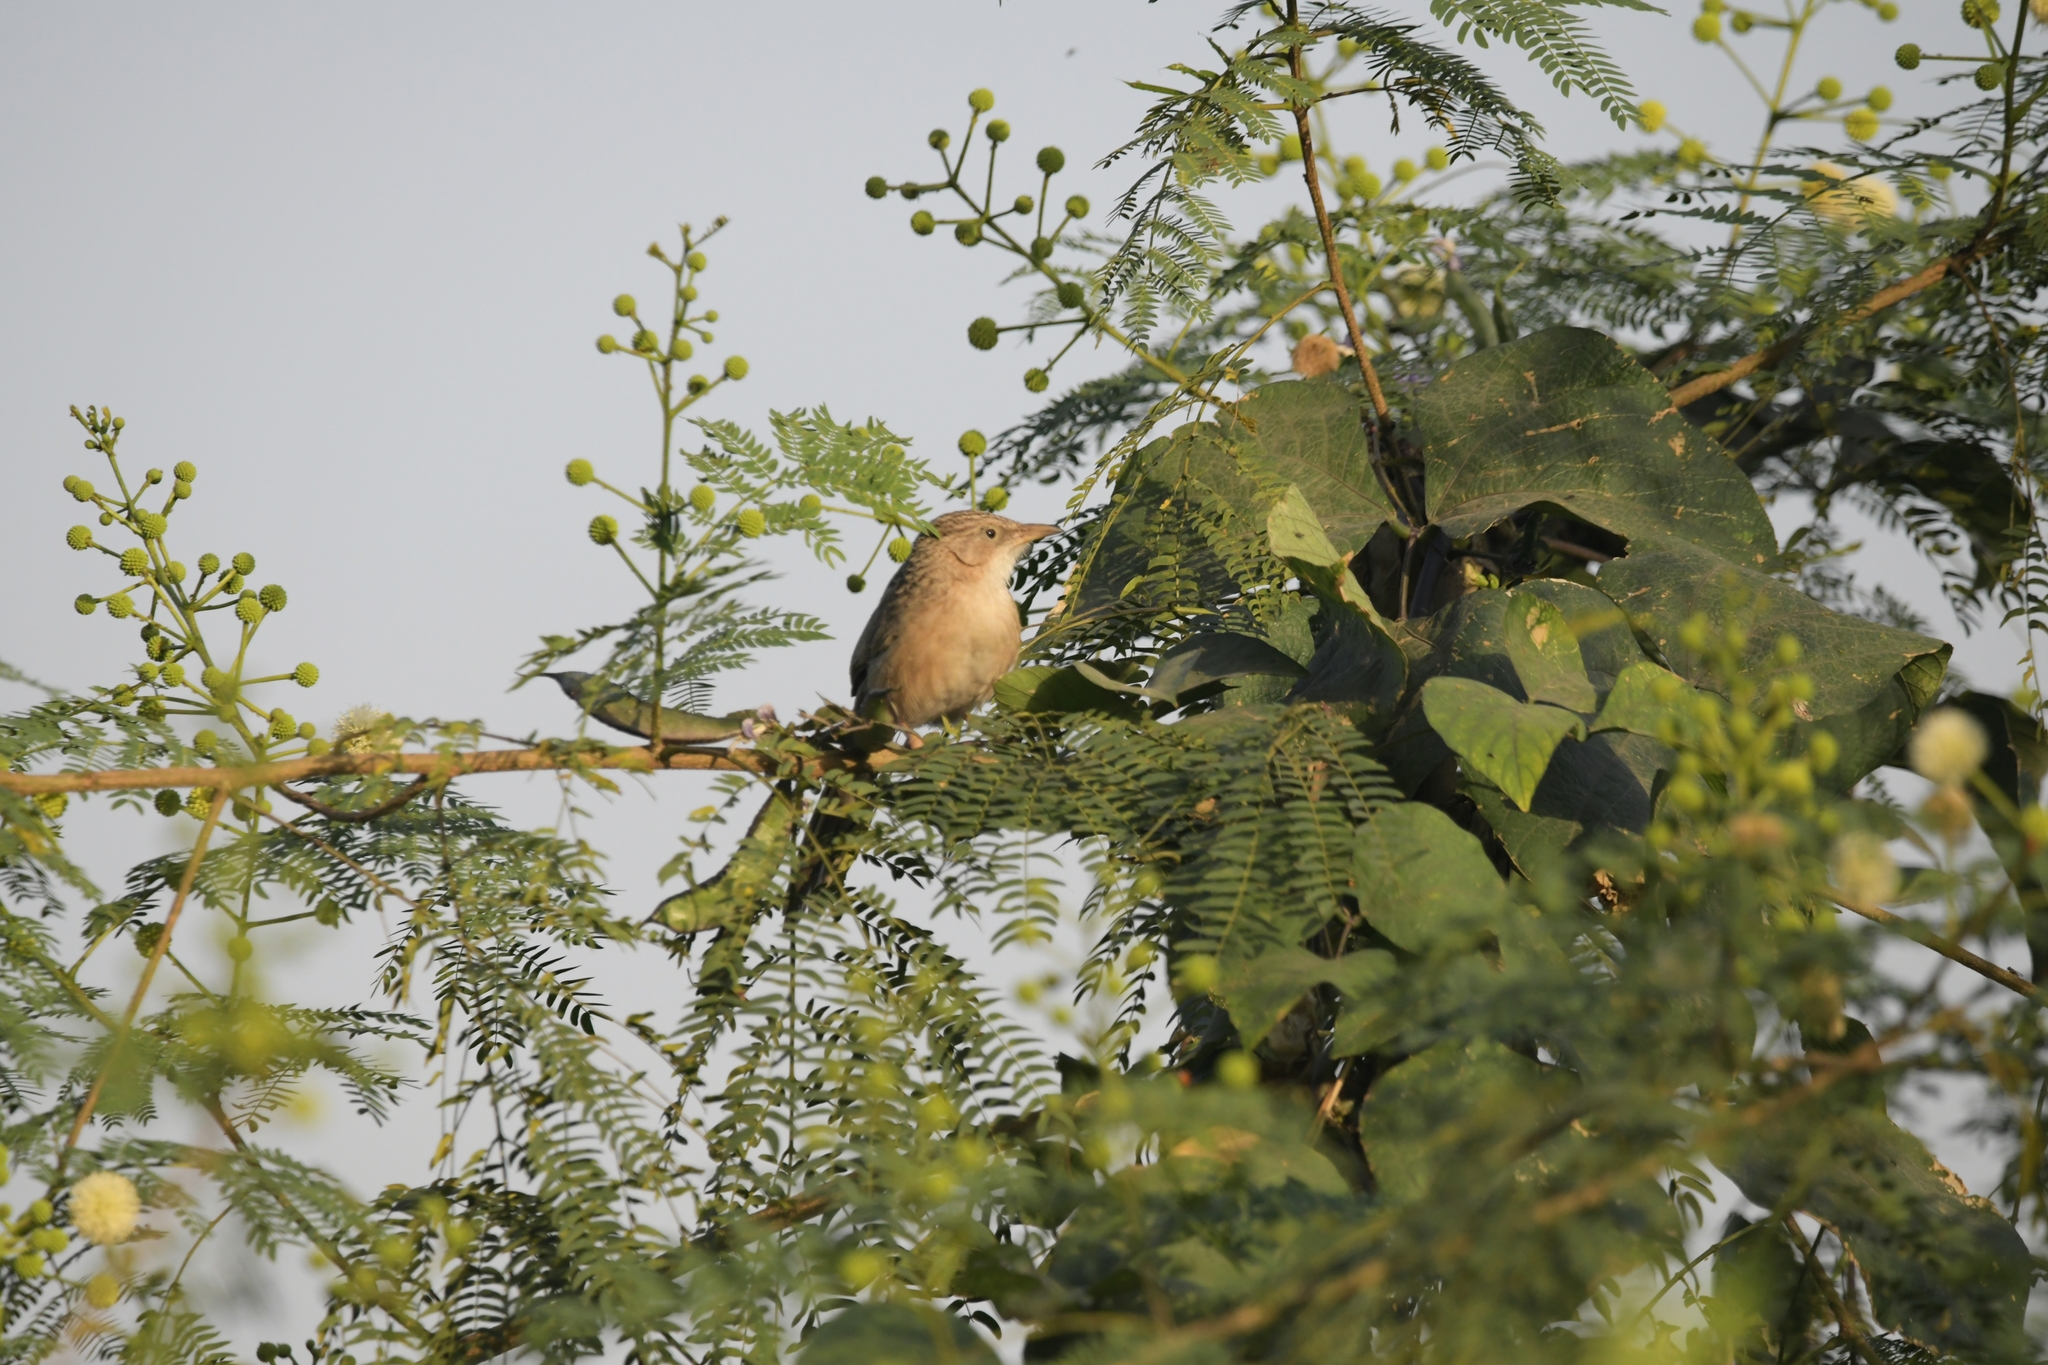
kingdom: Animalia
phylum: Chordata
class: Aves
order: Passeriformes
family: Leiothrichidae
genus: Turdoides
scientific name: Turdoides caudata
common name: Common babbler
